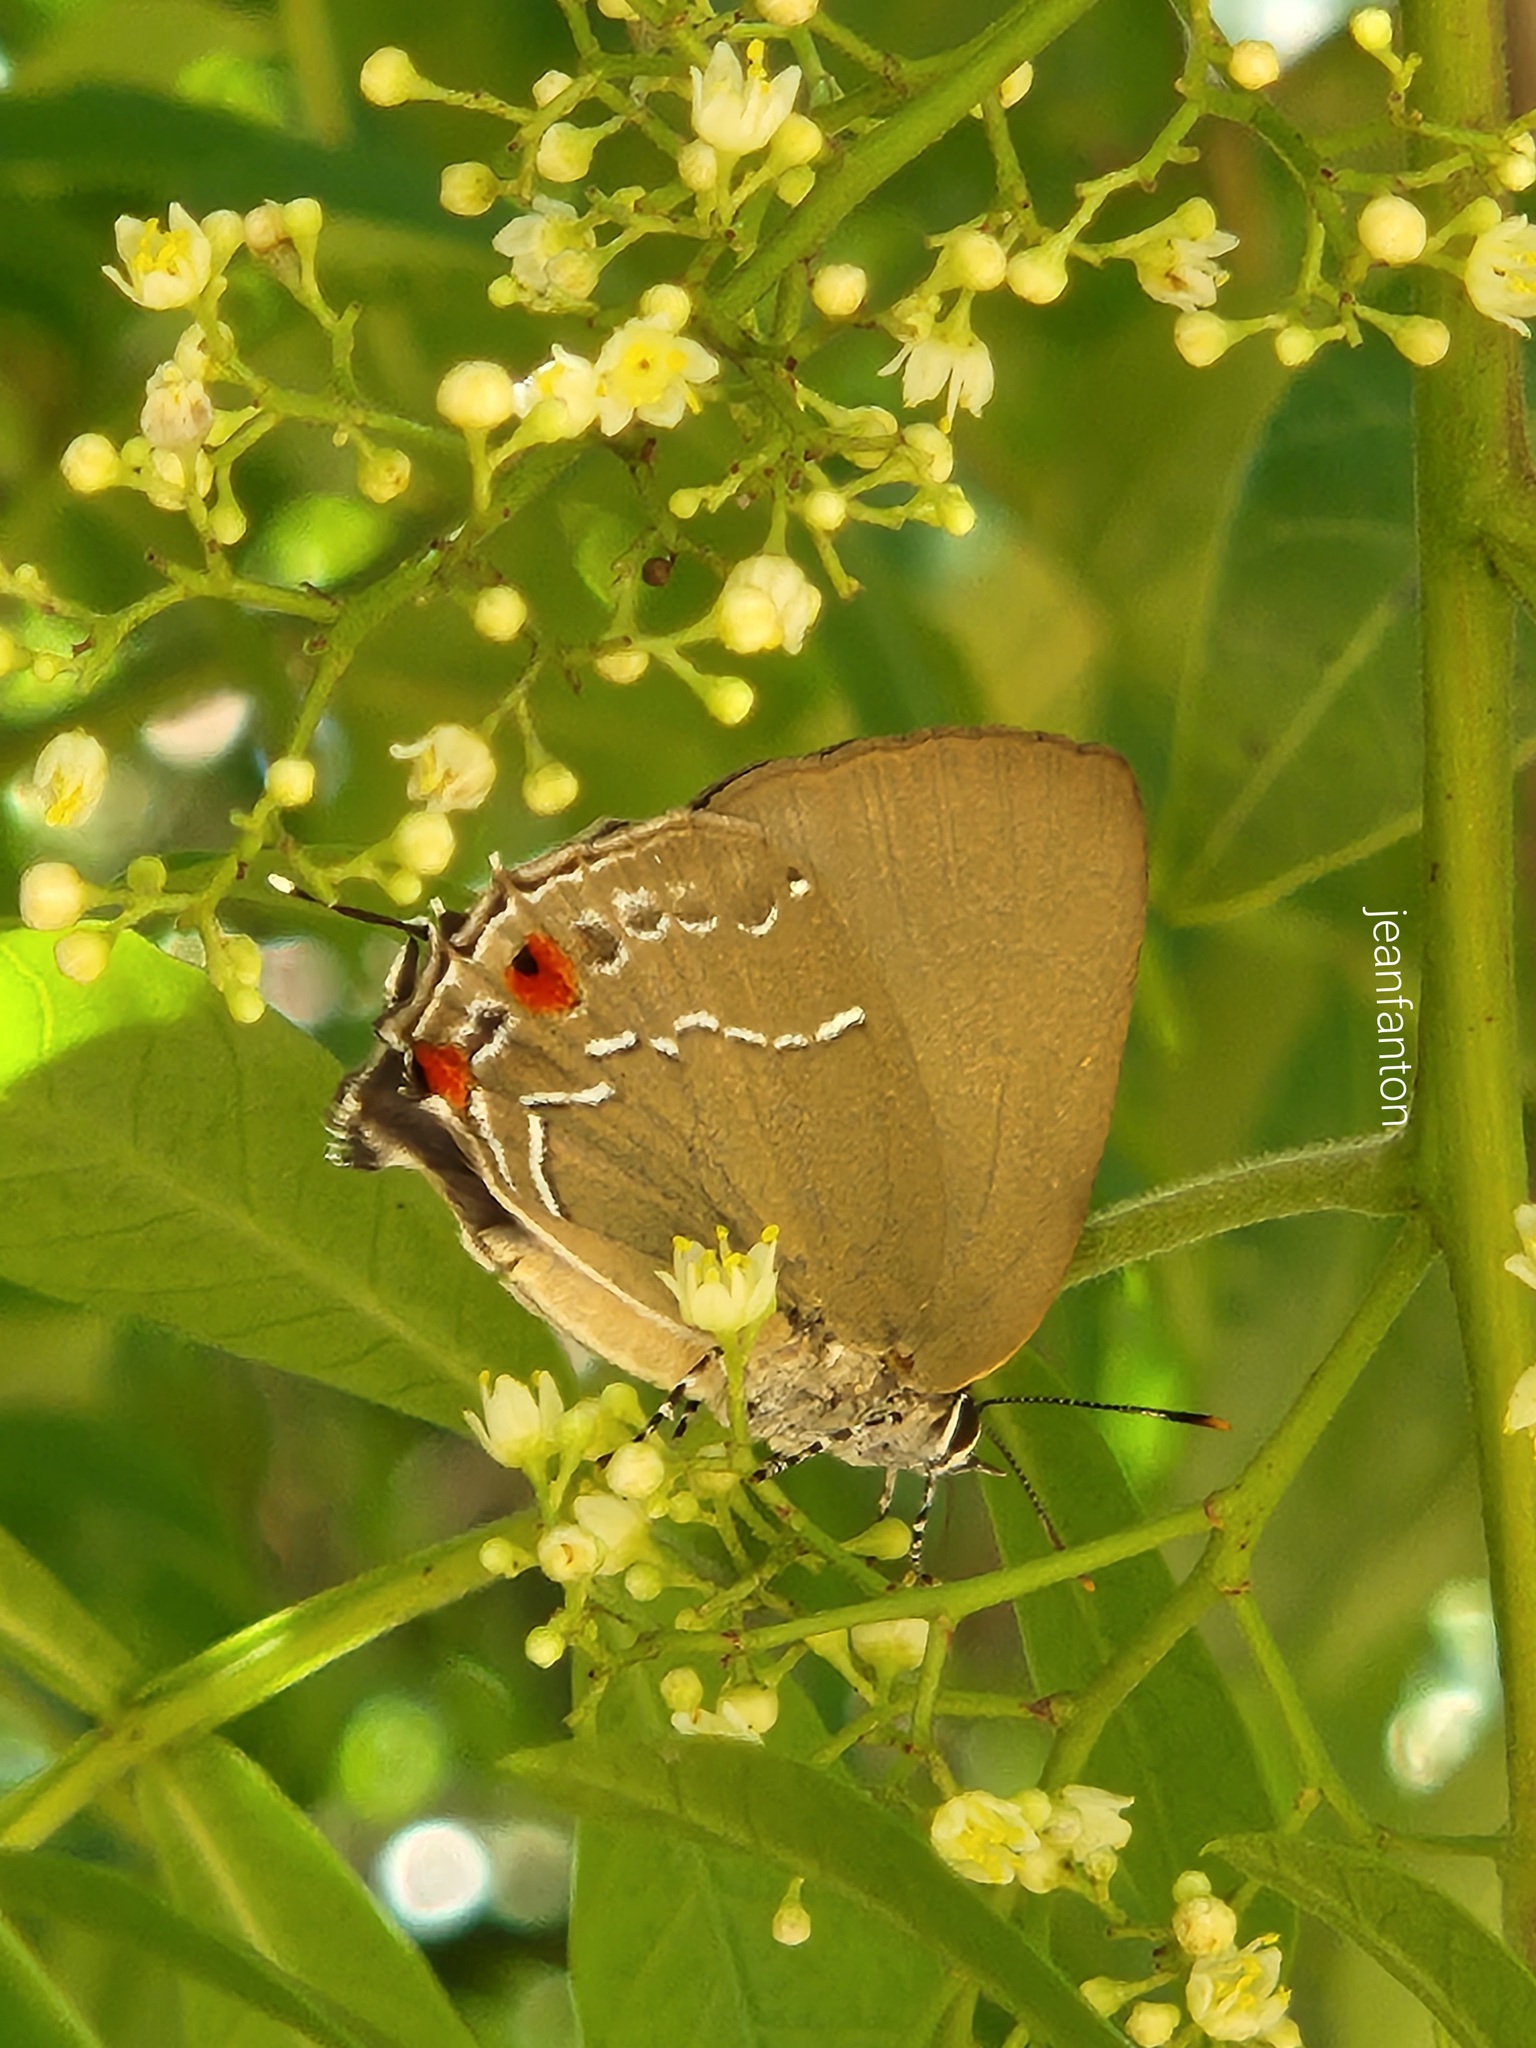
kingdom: Animalia
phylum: Arthropoda
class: Insecta
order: Lepidoptera
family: Lycaenidae
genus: Thecla
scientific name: Thecla ligurina
